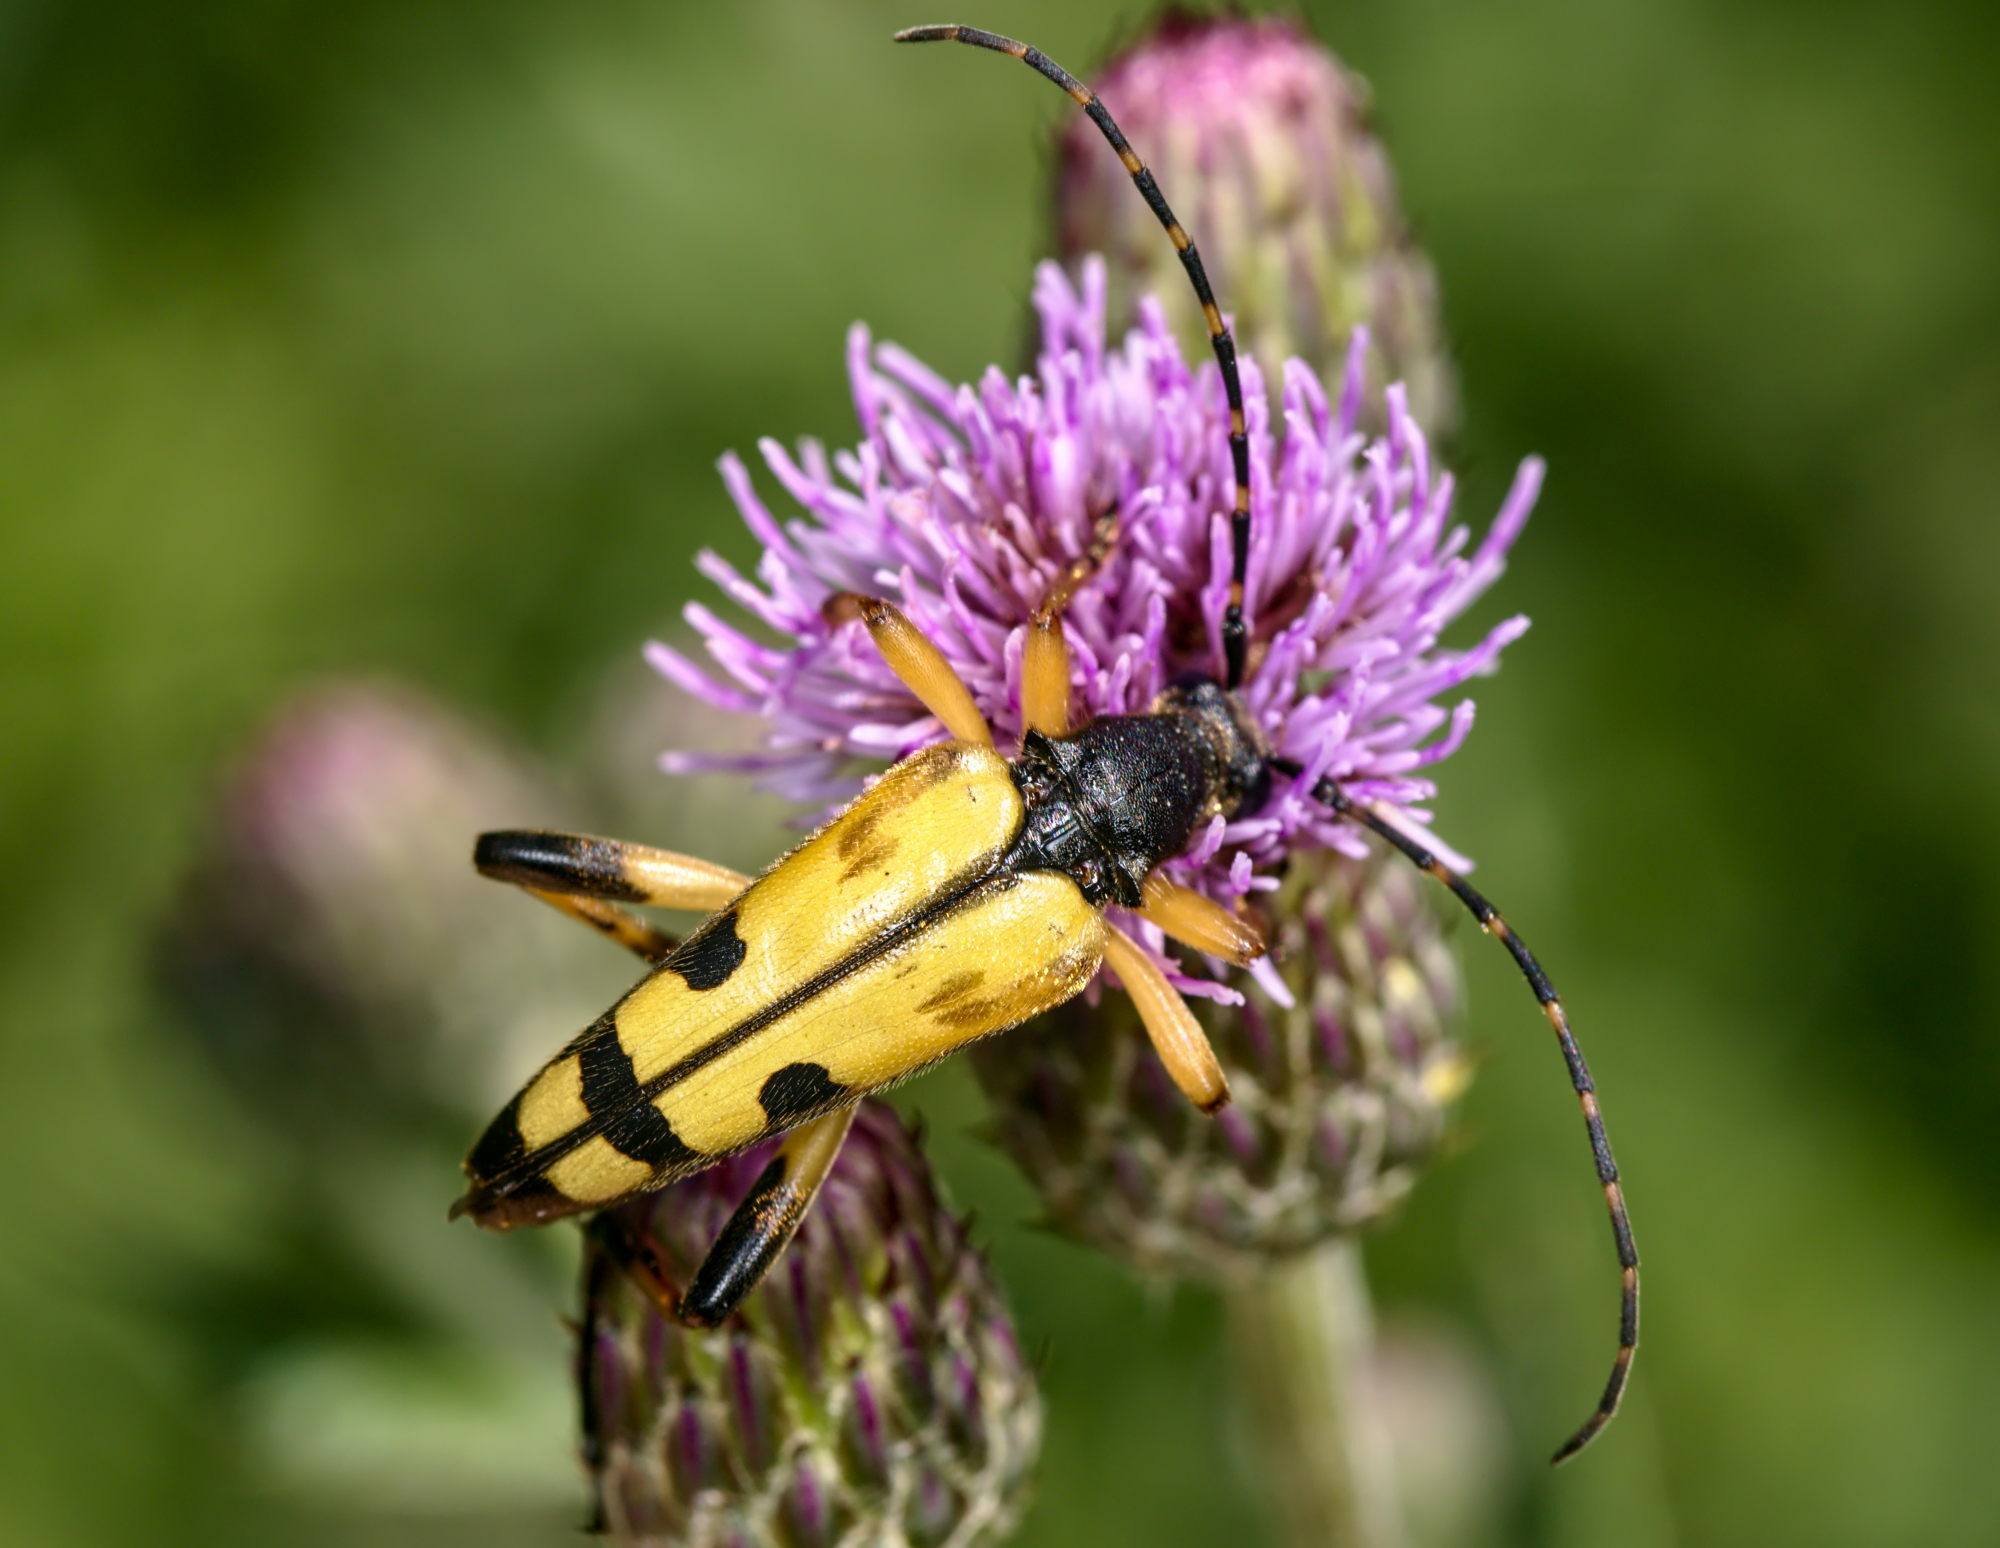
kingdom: Animalia
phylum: Arthropoda
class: Insecta
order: Coleoptera
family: Cerambycidae
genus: Rutpela
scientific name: Rutpela maculata
